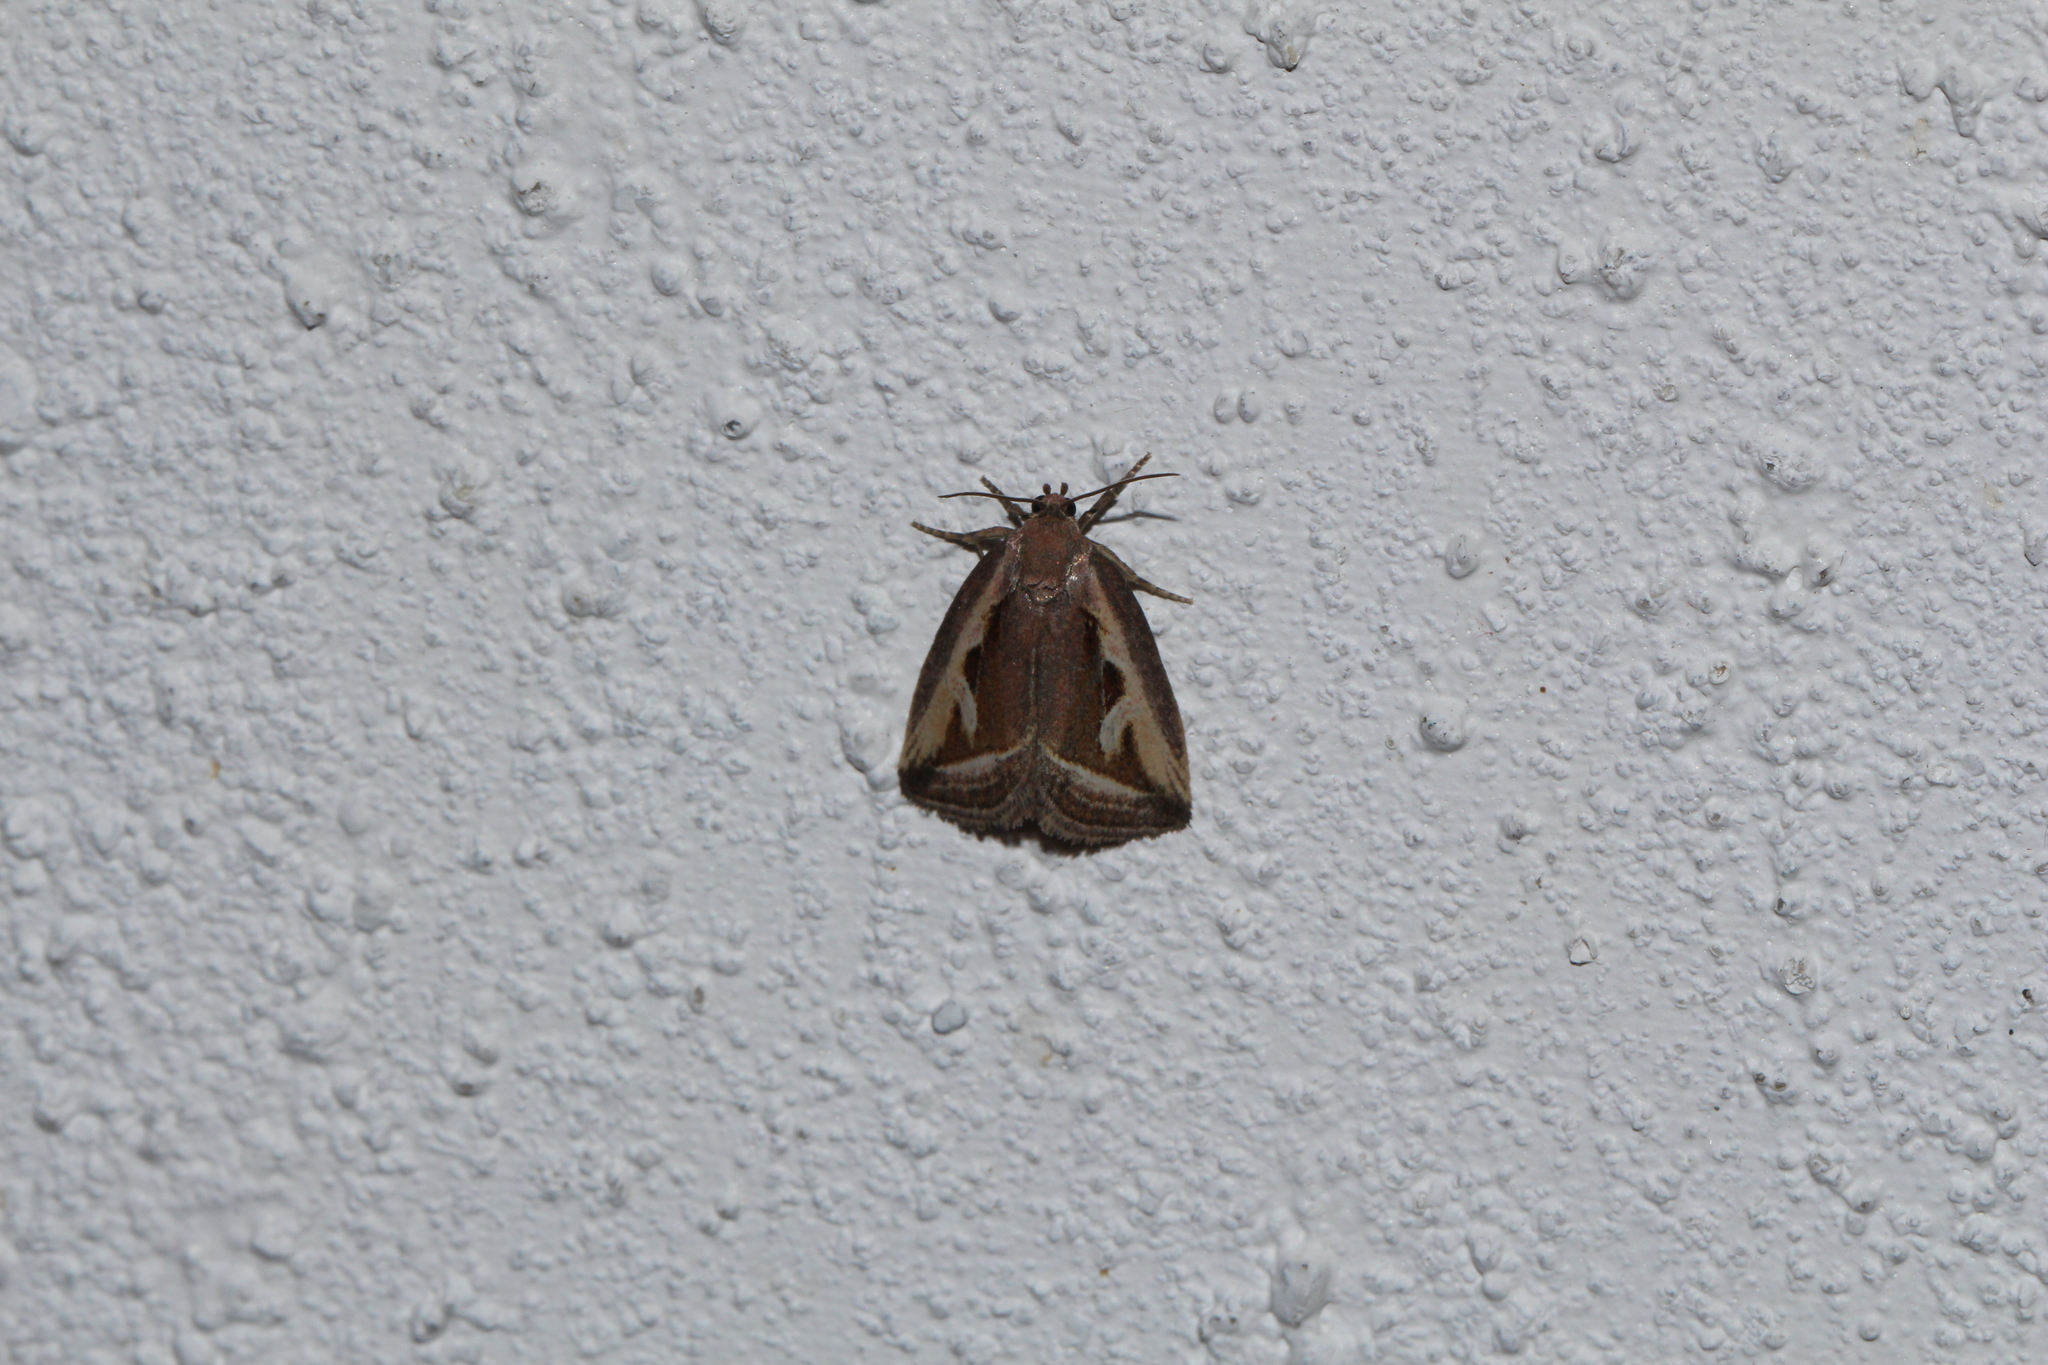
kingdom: Animalia
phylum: Arthropoda
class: Insecta
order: Lepidoptera
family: Noctuidae
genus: Deltote
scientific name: Deltote uncula
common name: Silver hook
